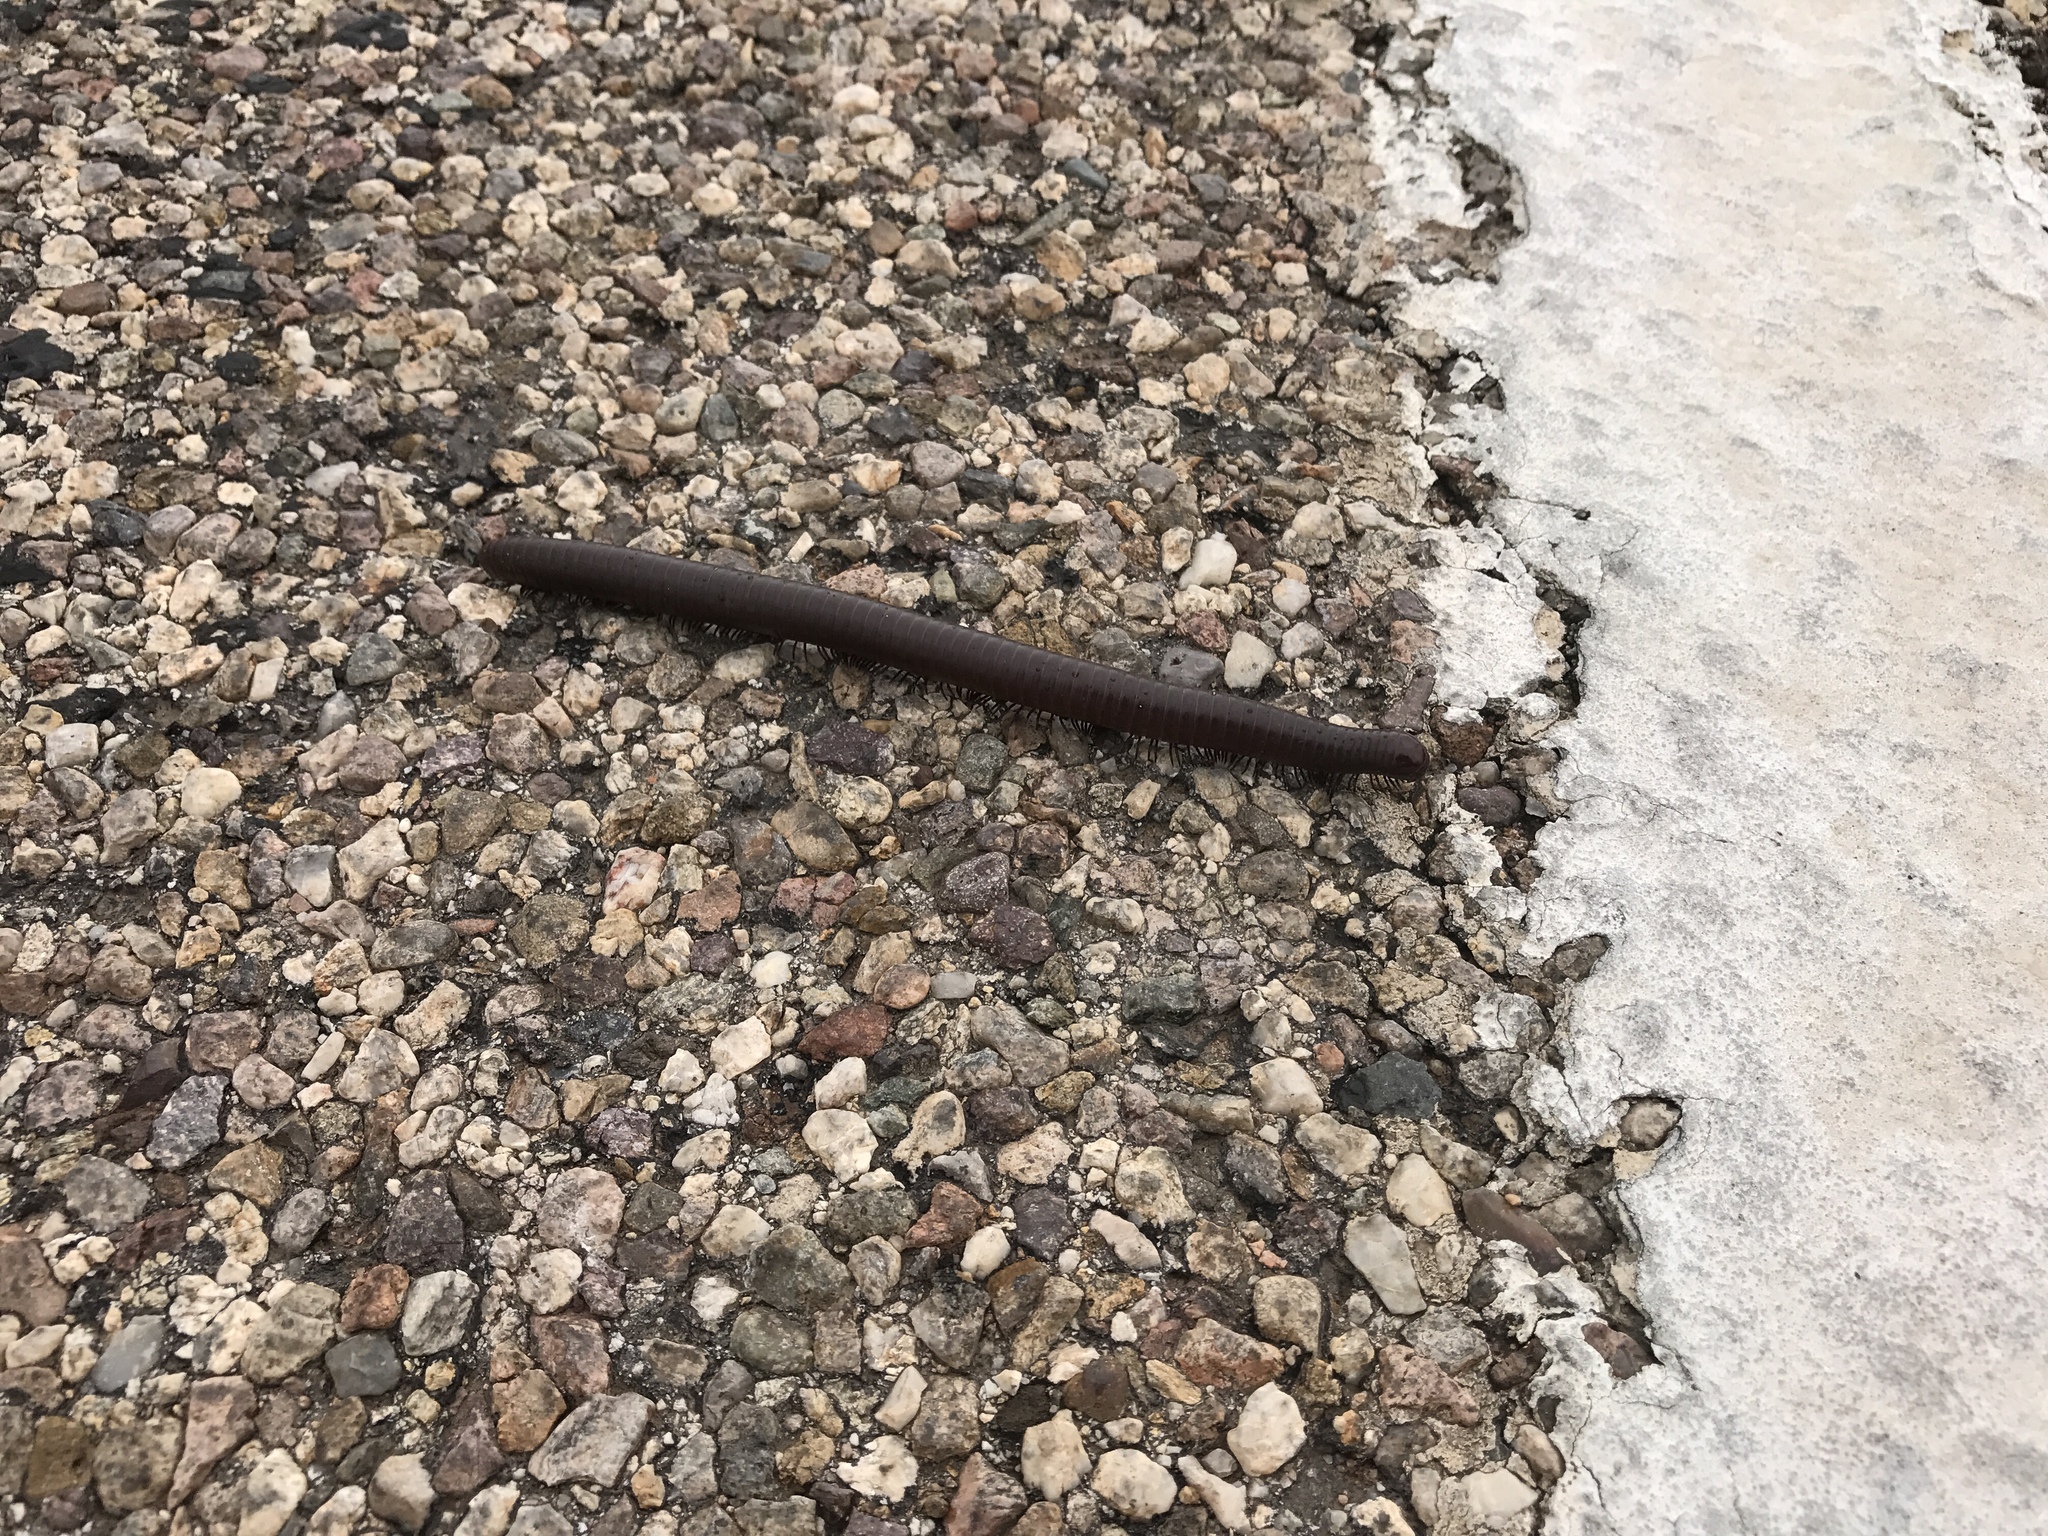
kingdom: Animalia
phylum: Arthropoda
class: Diplopoda
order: Spirostreptida
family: Spirostreptidae
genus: Orthoporus
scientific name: Orthoporus ornatus
